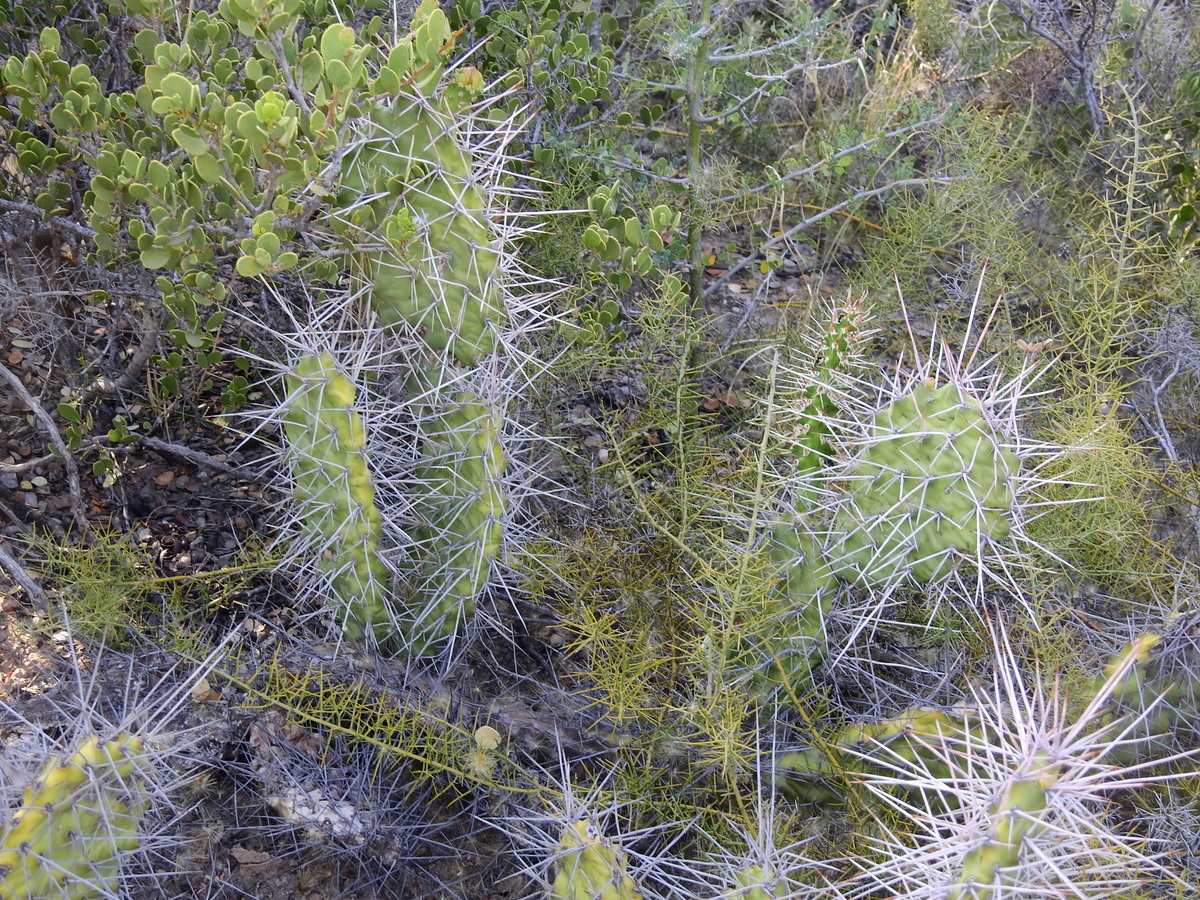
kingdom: Plantae
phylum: Tracheophyta
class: Magnoliopsida
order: Caryophyllales
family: Cactaceae
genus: Opuntia
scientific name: Opuntia sulphurea
